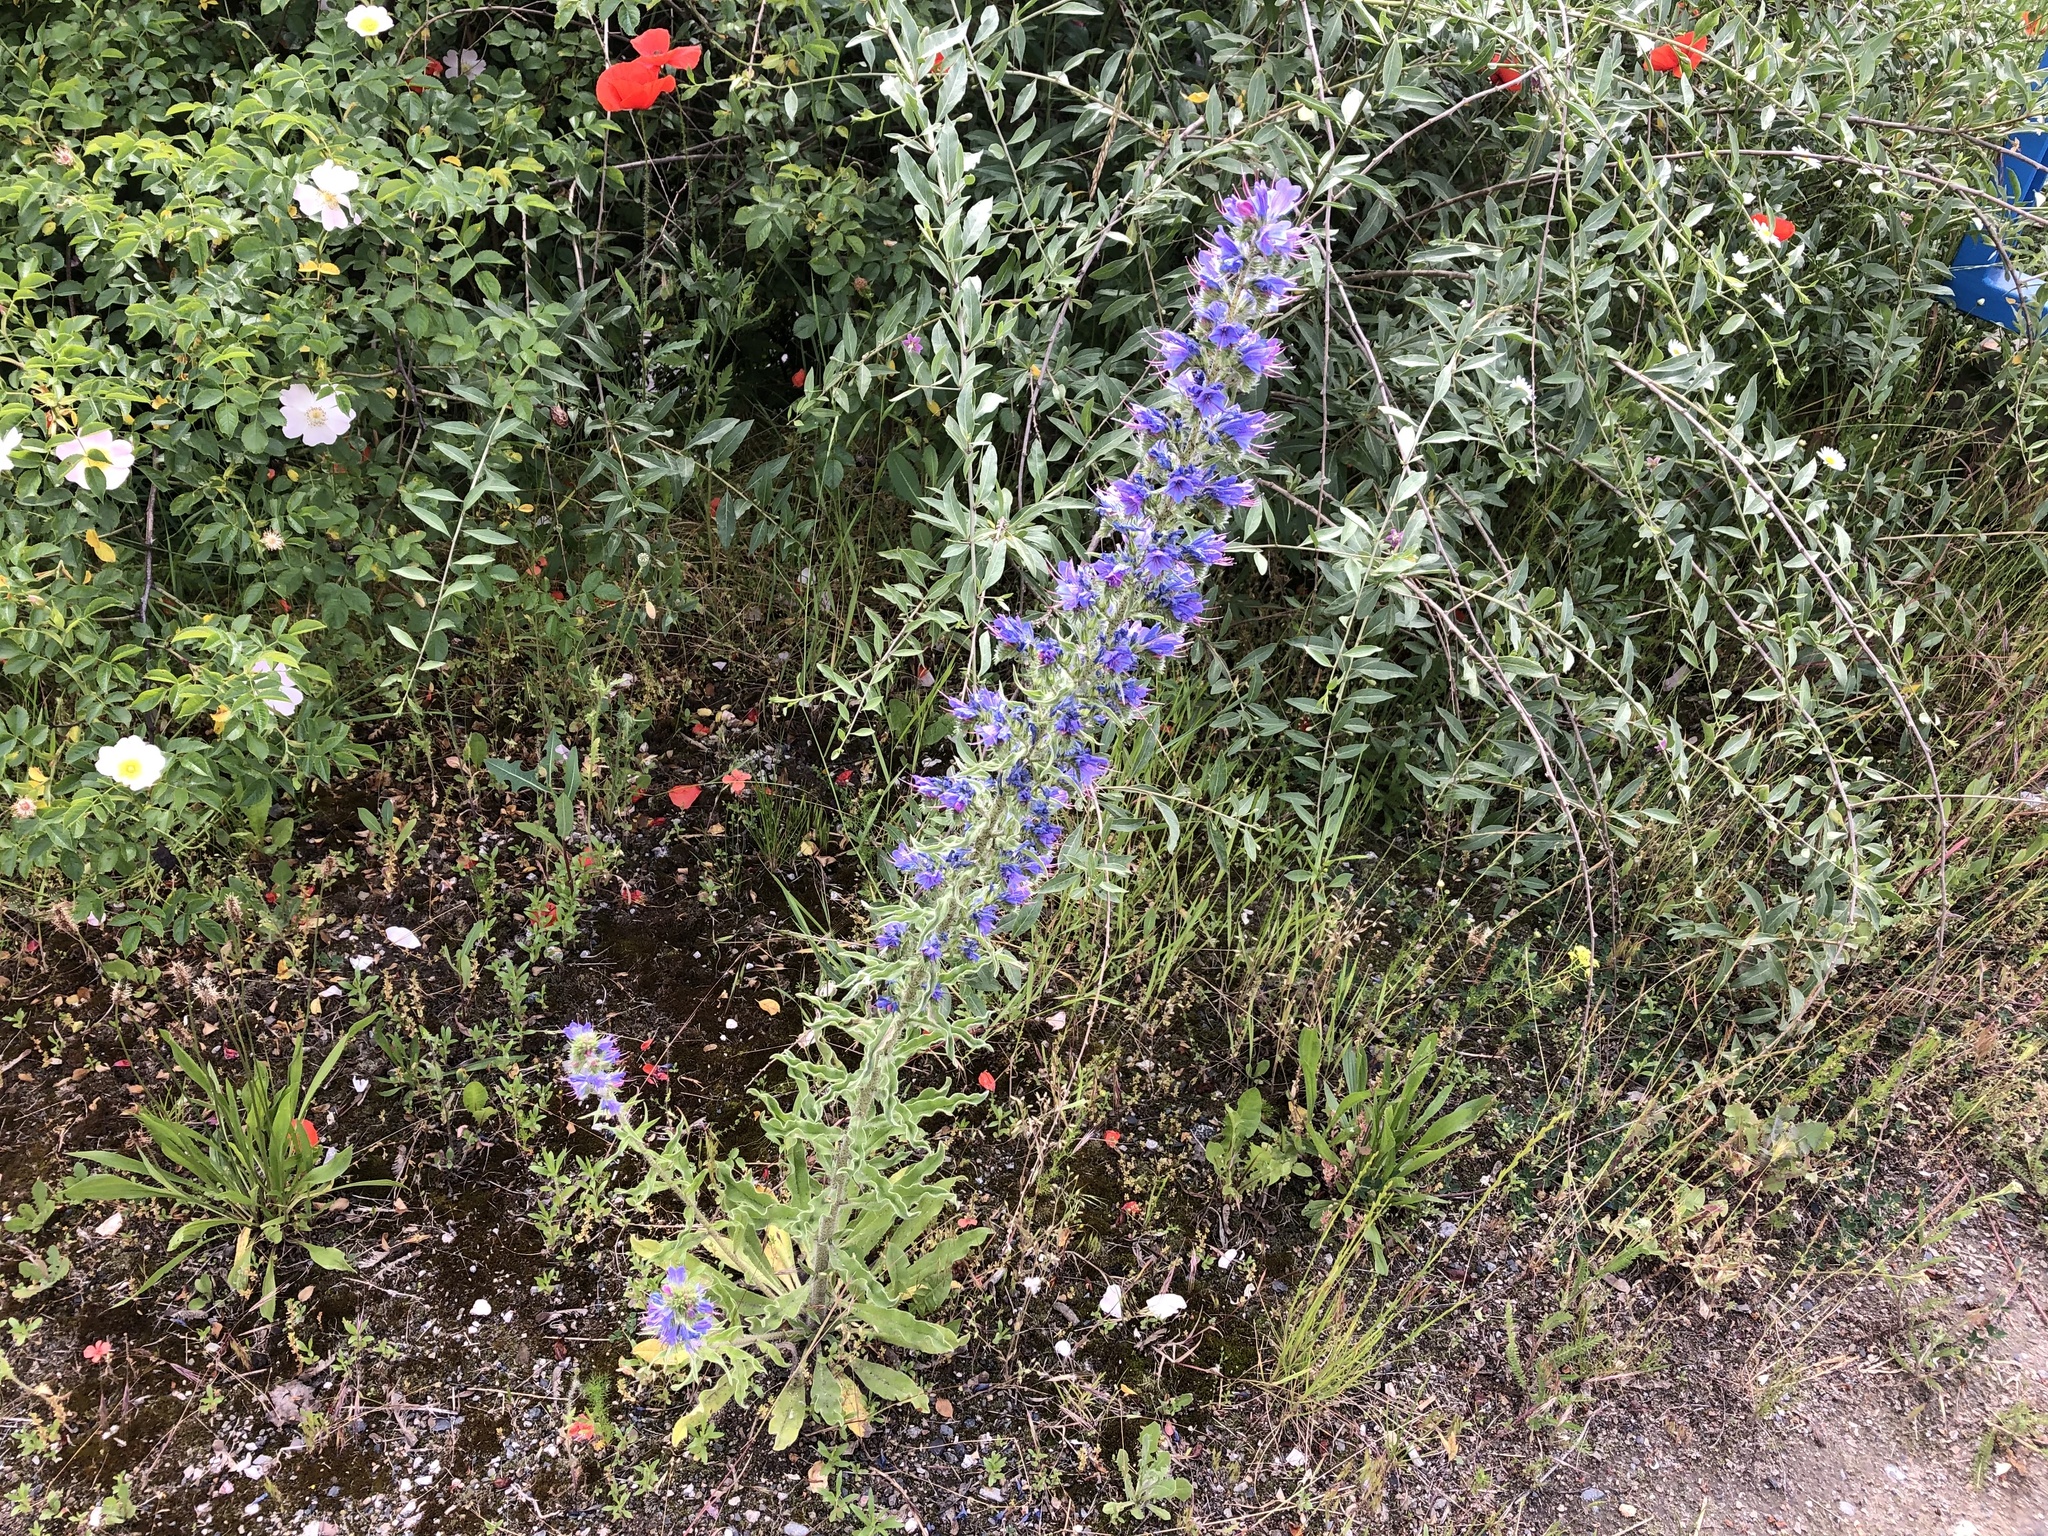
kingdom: Plantae
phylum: Tracheophyta
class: Magnoliopsida
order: Boraginales
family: Boraginaceae
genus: Echium
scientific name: Echium vulgare
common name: Common viper's bugloss
